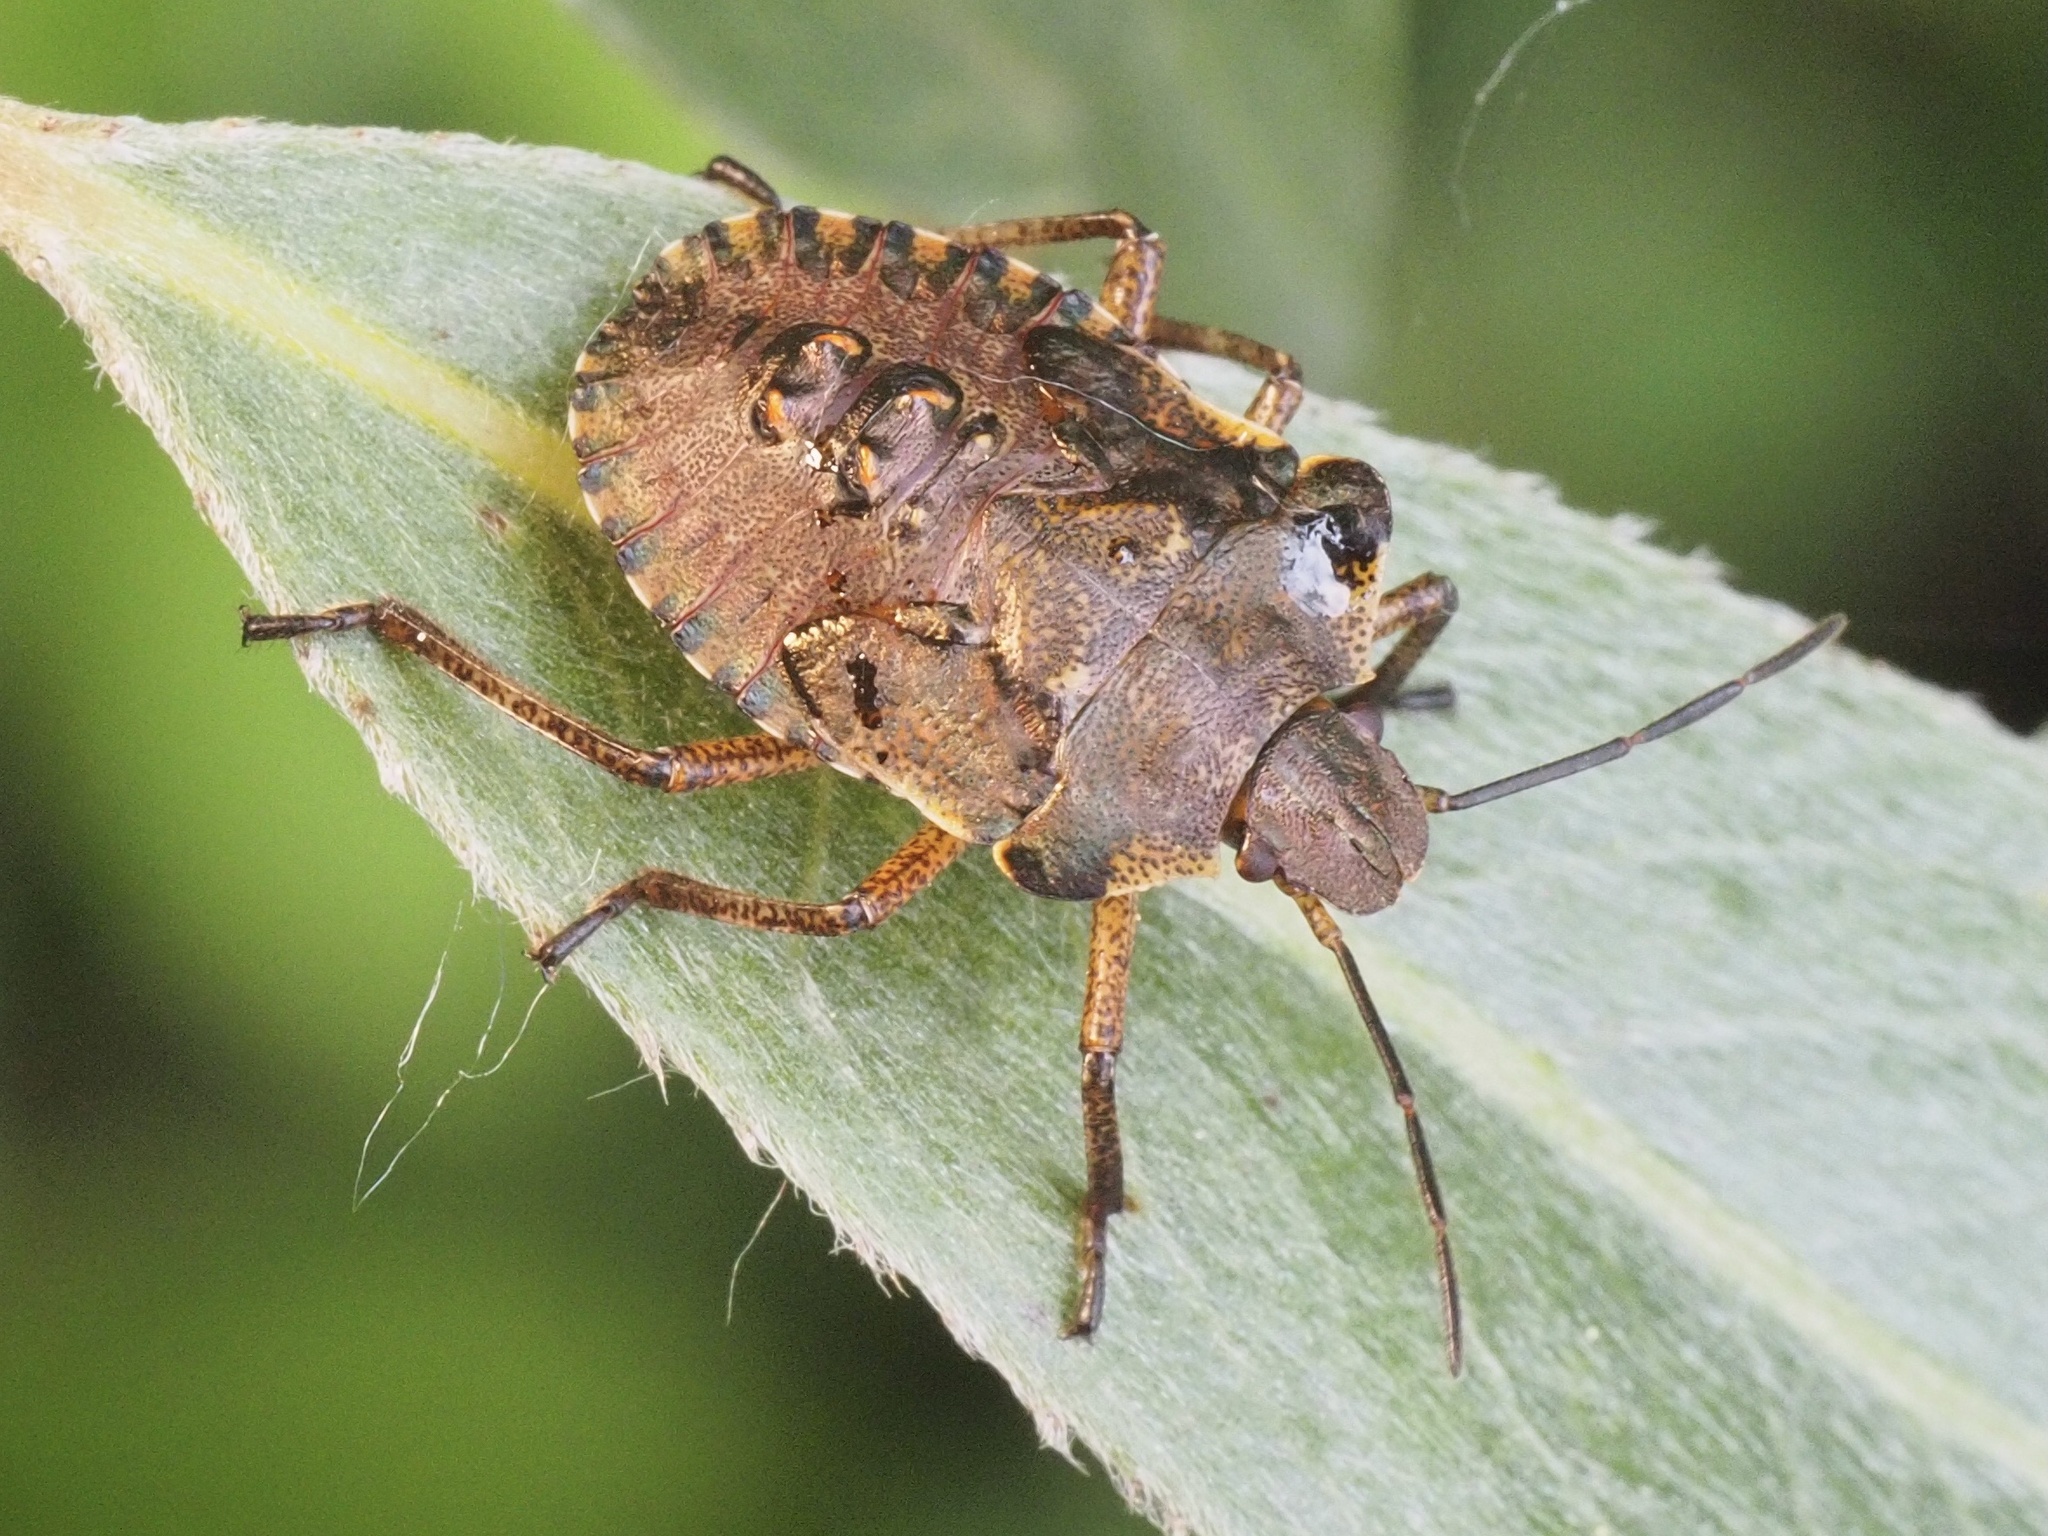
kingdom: Animalia
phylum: Arthropoda
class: Insecta
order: Hemiptera
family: Pentatomidae
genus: Pentatoma
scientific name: Pentatoma rufipes
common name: Forest bug
